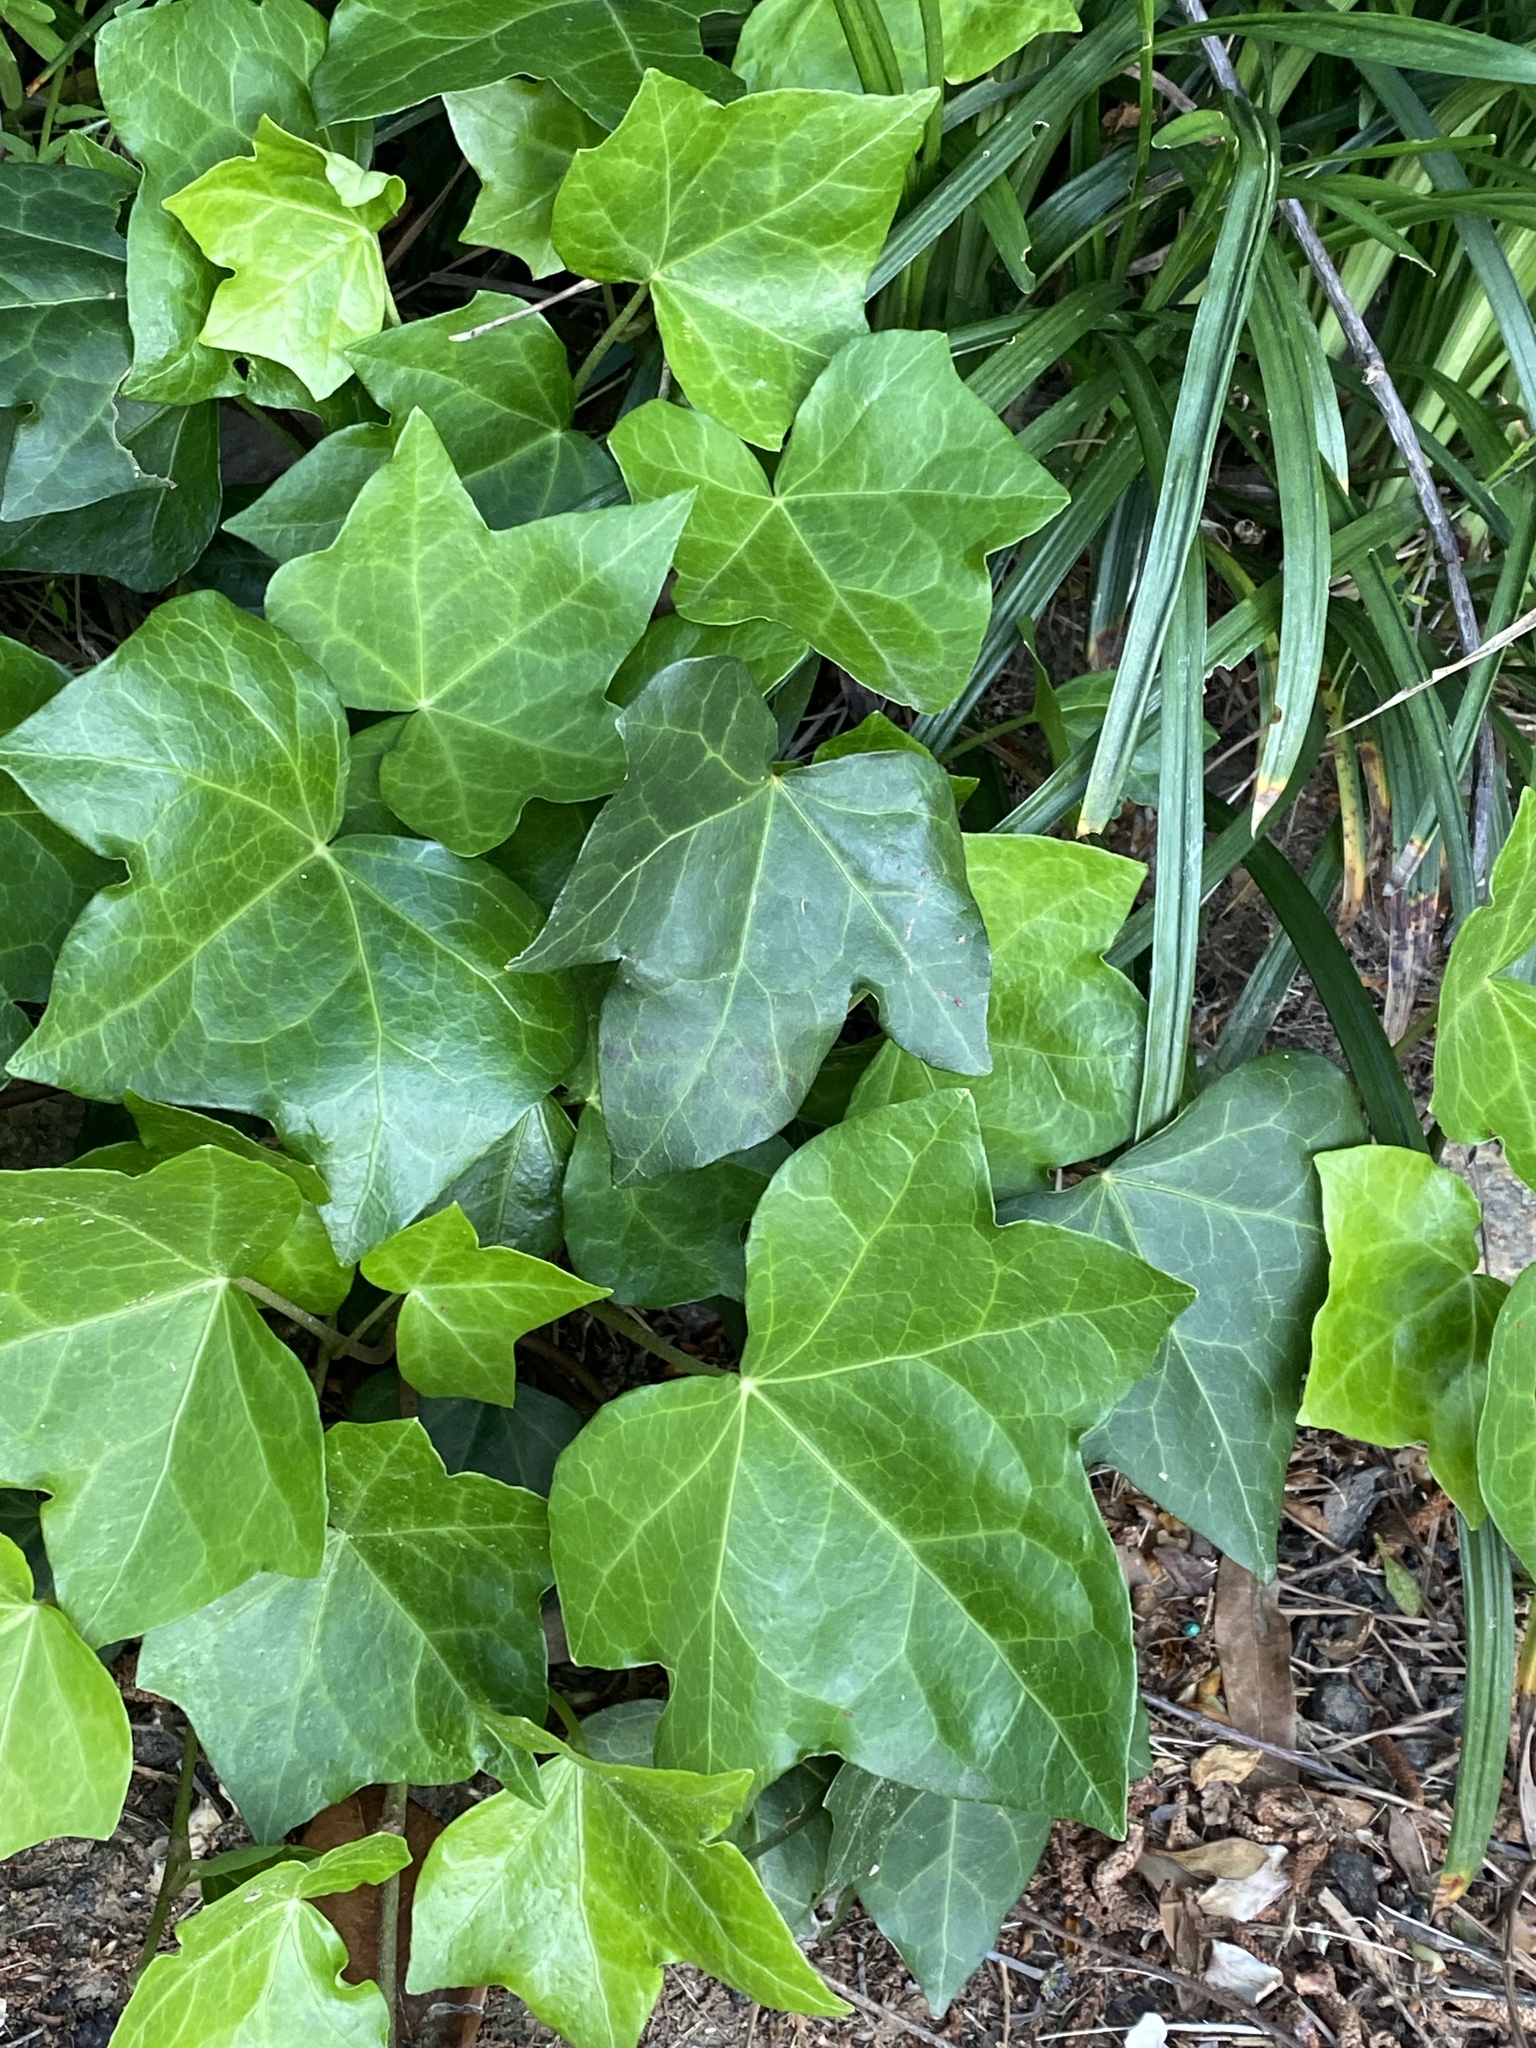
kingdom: Plantae
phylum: Tracheophyta
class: Magnoliopsida
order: Apiales
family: Araliaceae
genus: Hedera
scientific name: Hedera helix
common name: Ivy
